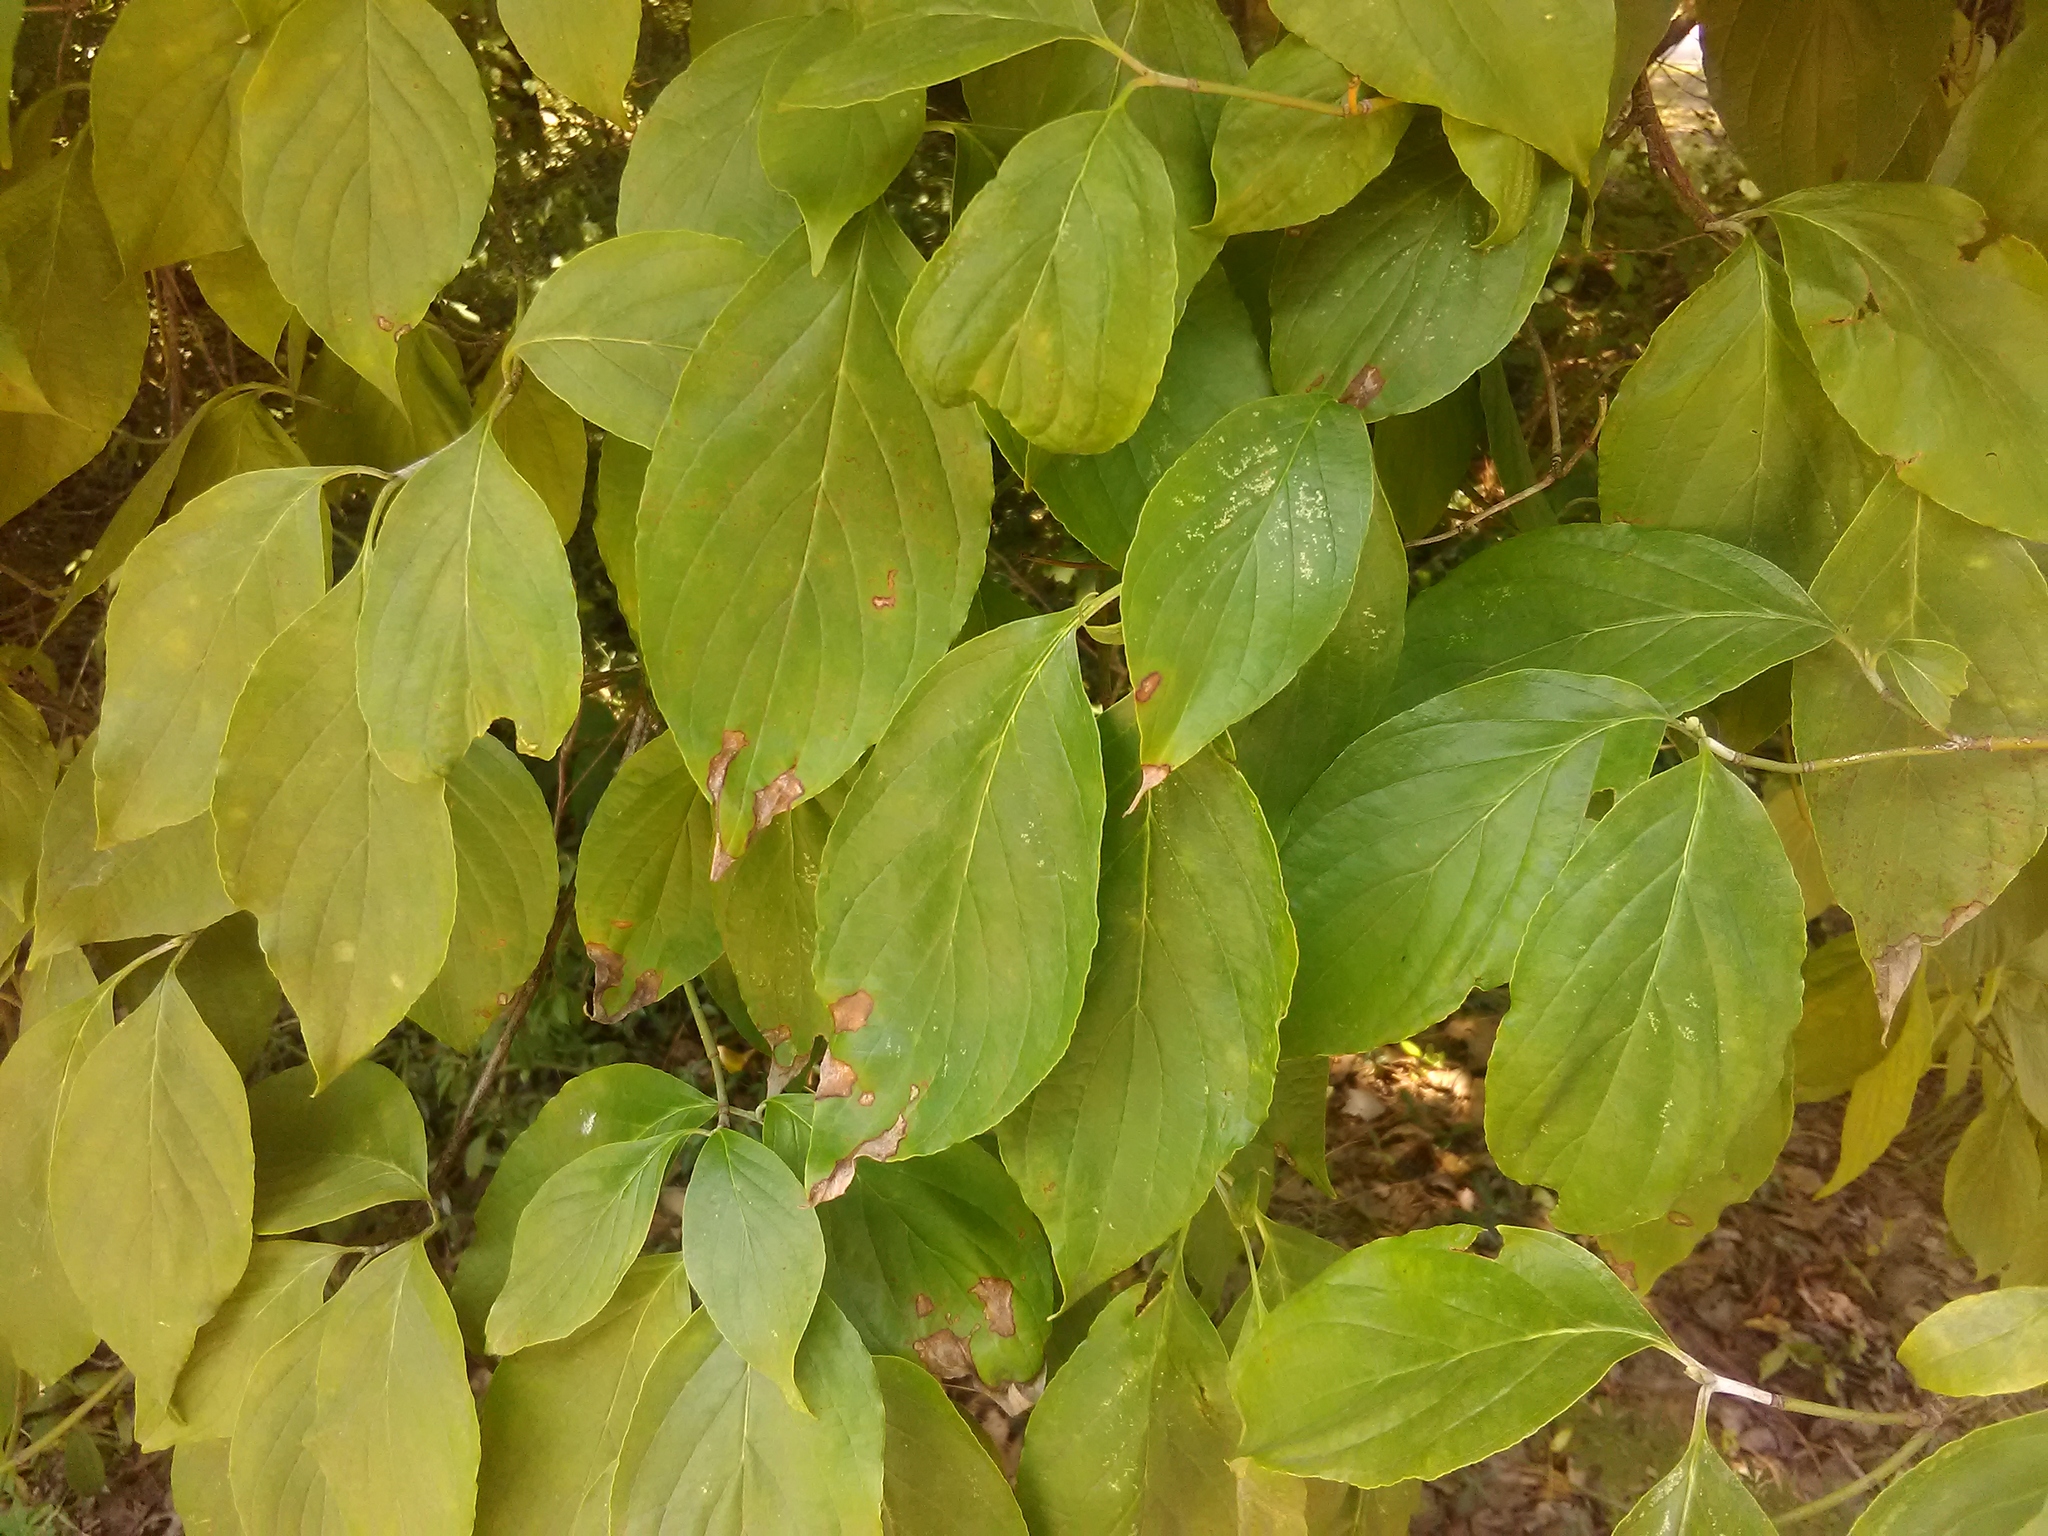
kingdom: Plantae
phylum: Tracheophyta
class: Magnoliopsida
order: Cornales
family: Cornaceae
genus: Cornus
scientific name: Cornus florida
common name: Flowering dogwood
